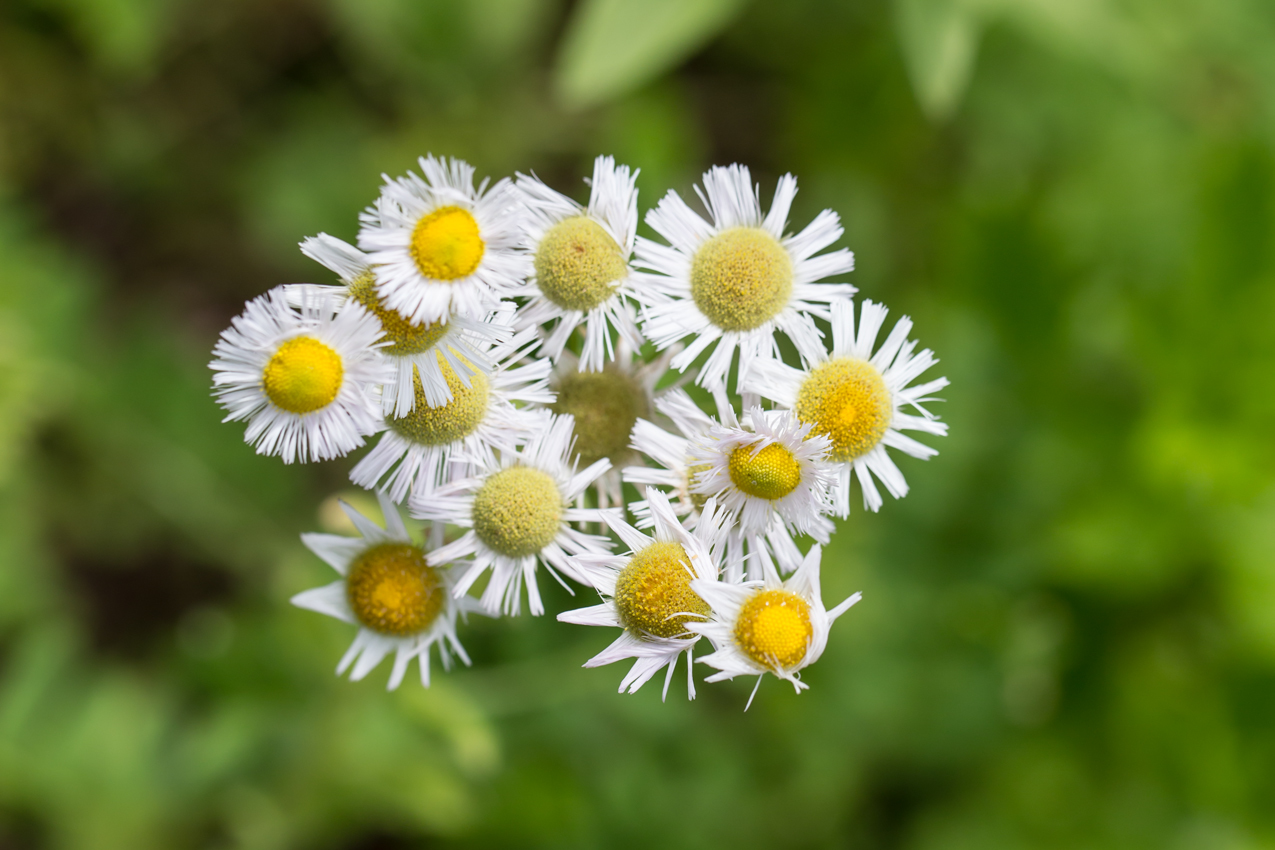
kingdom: Plantae
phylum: Tracheophyta
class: Magnoliopsida
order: Asterales
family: Asteraceae
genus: Erigeron
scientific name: Erigeron philadelphicus
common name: Robin's-plantain
